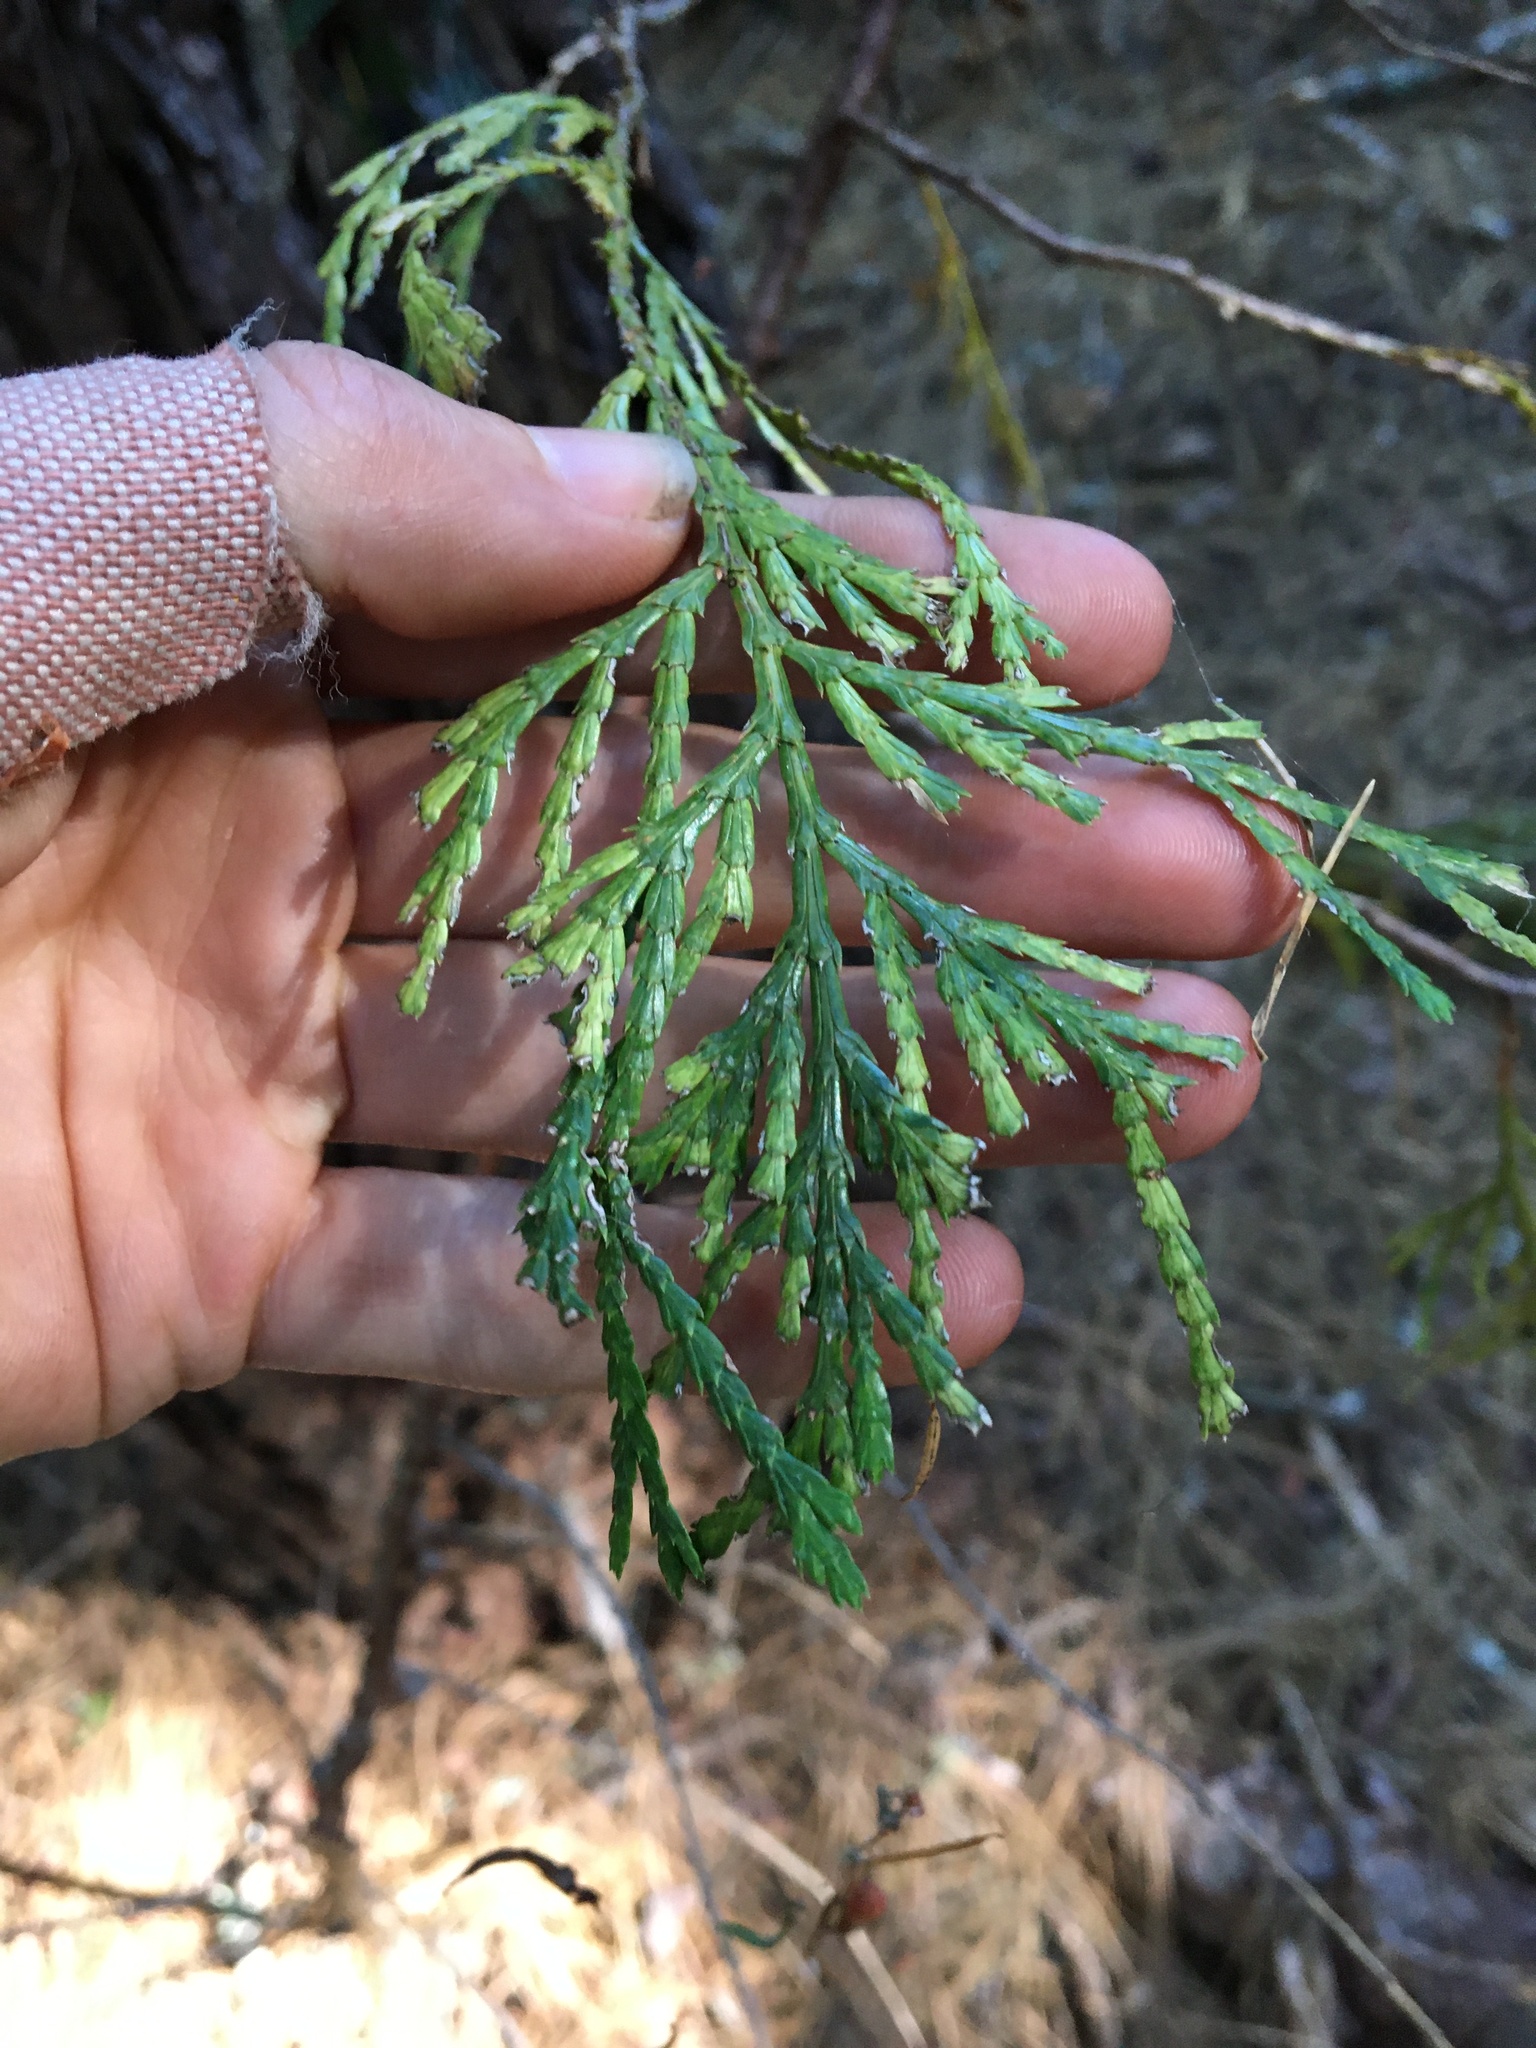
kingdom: Plantae
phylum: Tracheophyta
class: Pinopsida
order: Pinales
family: Cupressaceae
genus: Calocedrus
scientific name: Calocedrus decurrens
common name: Californian incense-cedar
